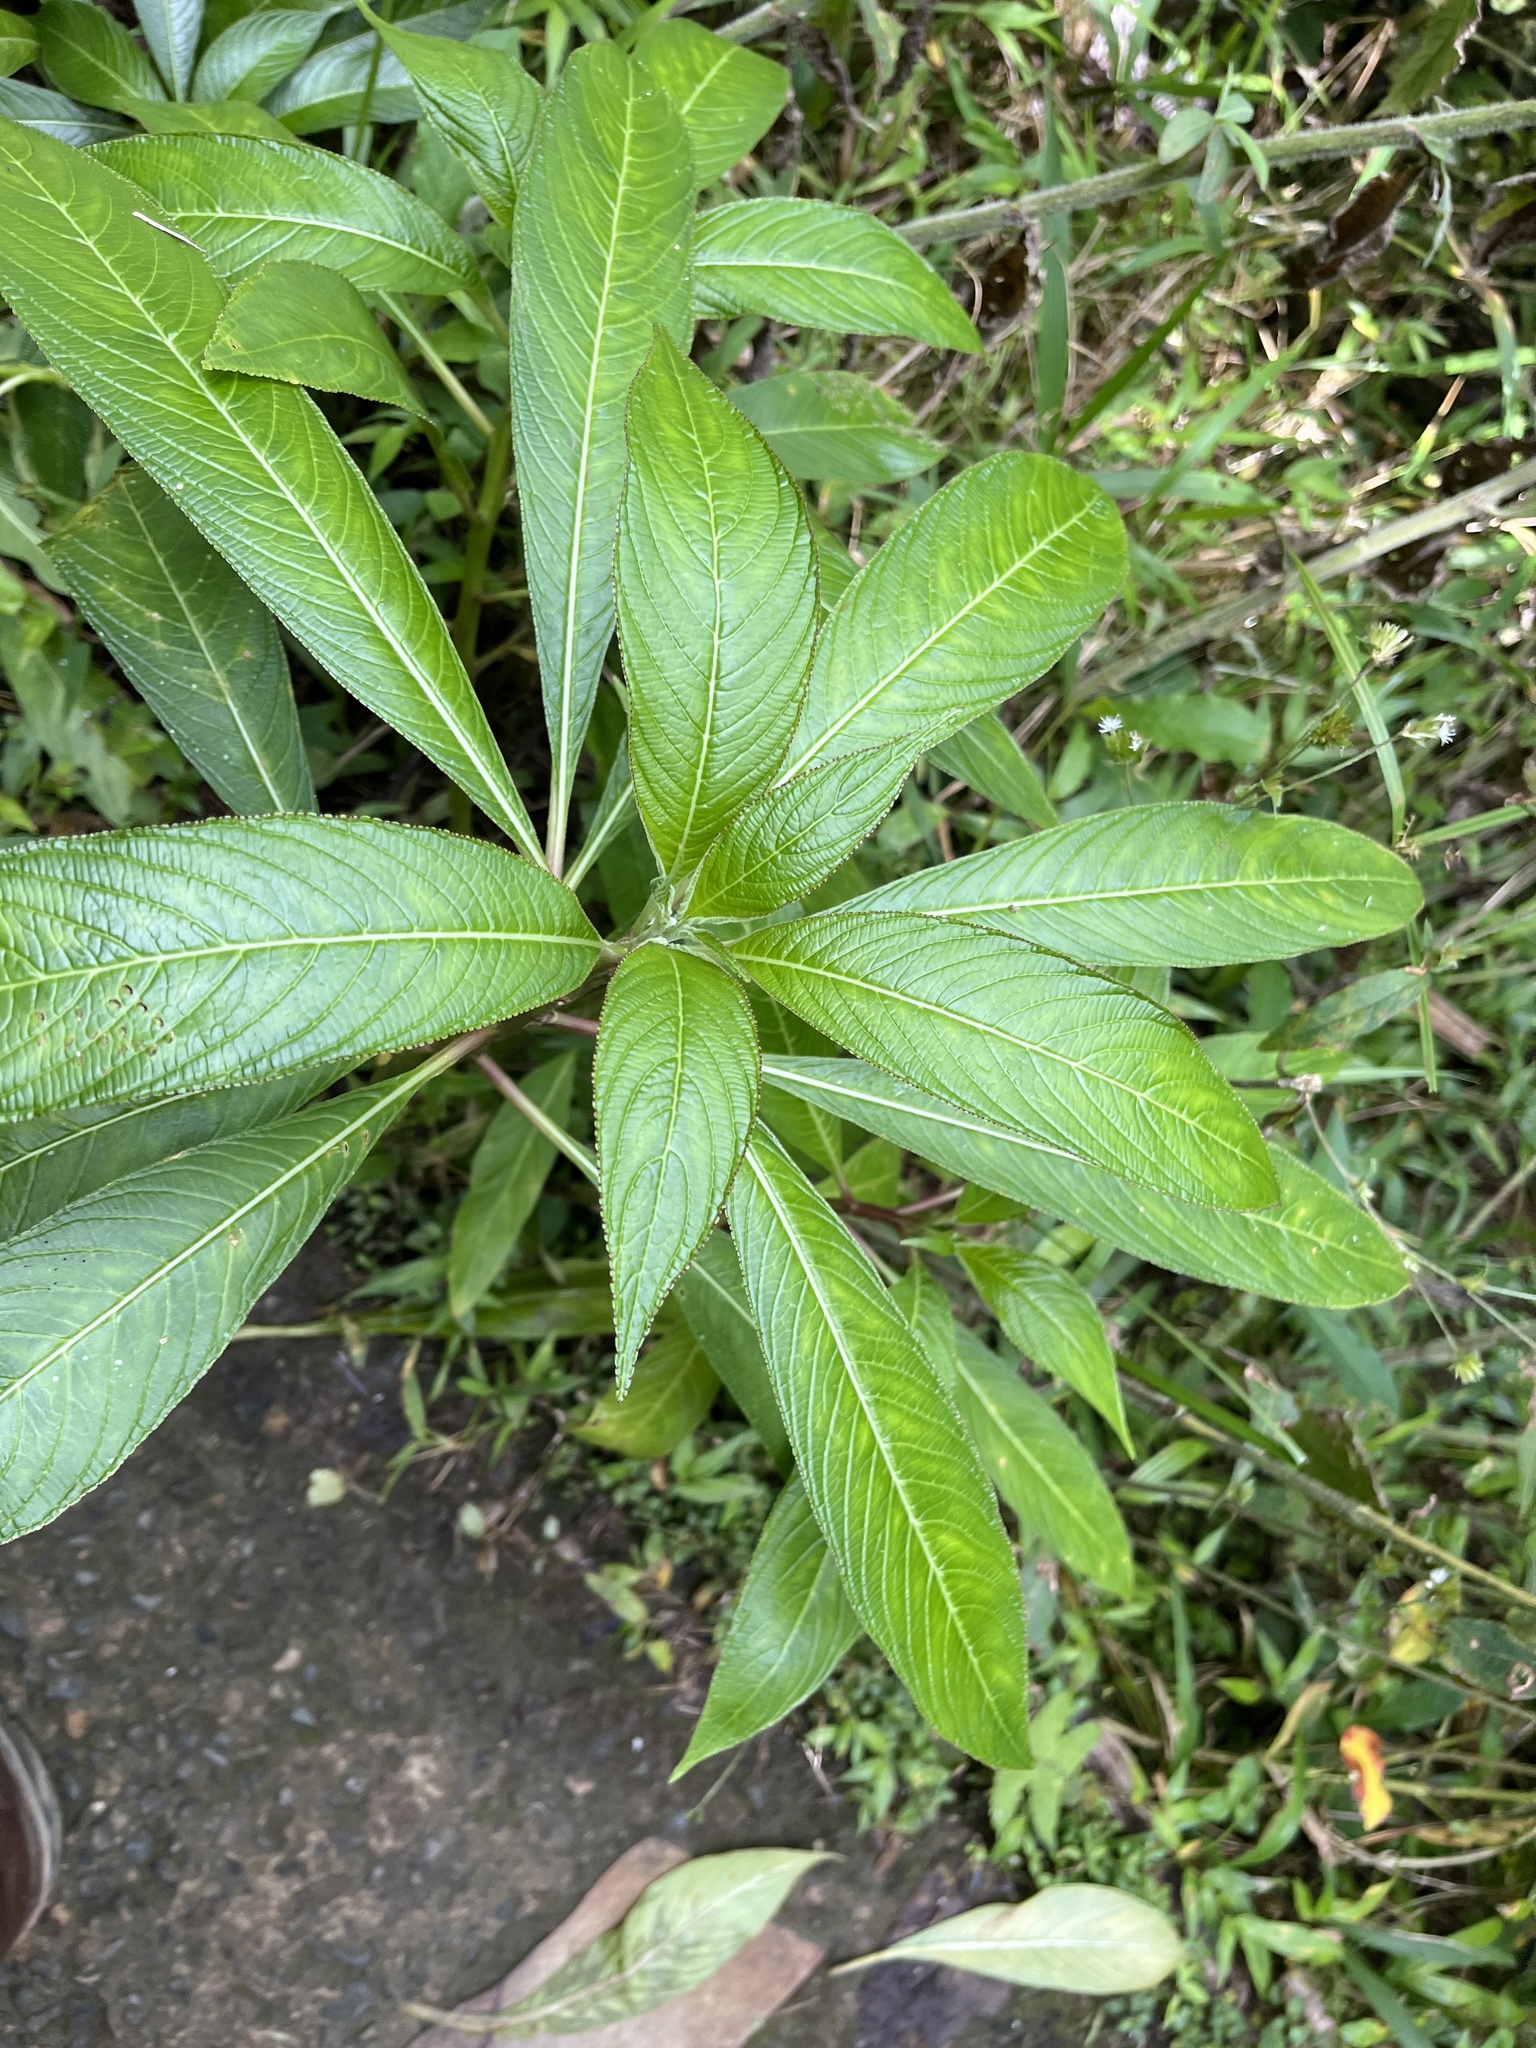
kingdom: Plantae
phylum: Tracheophyta
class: Magnoliopsida
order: Asterales
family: Campanulaceae
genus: Lobelia
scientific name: Lobelia portoricensis
